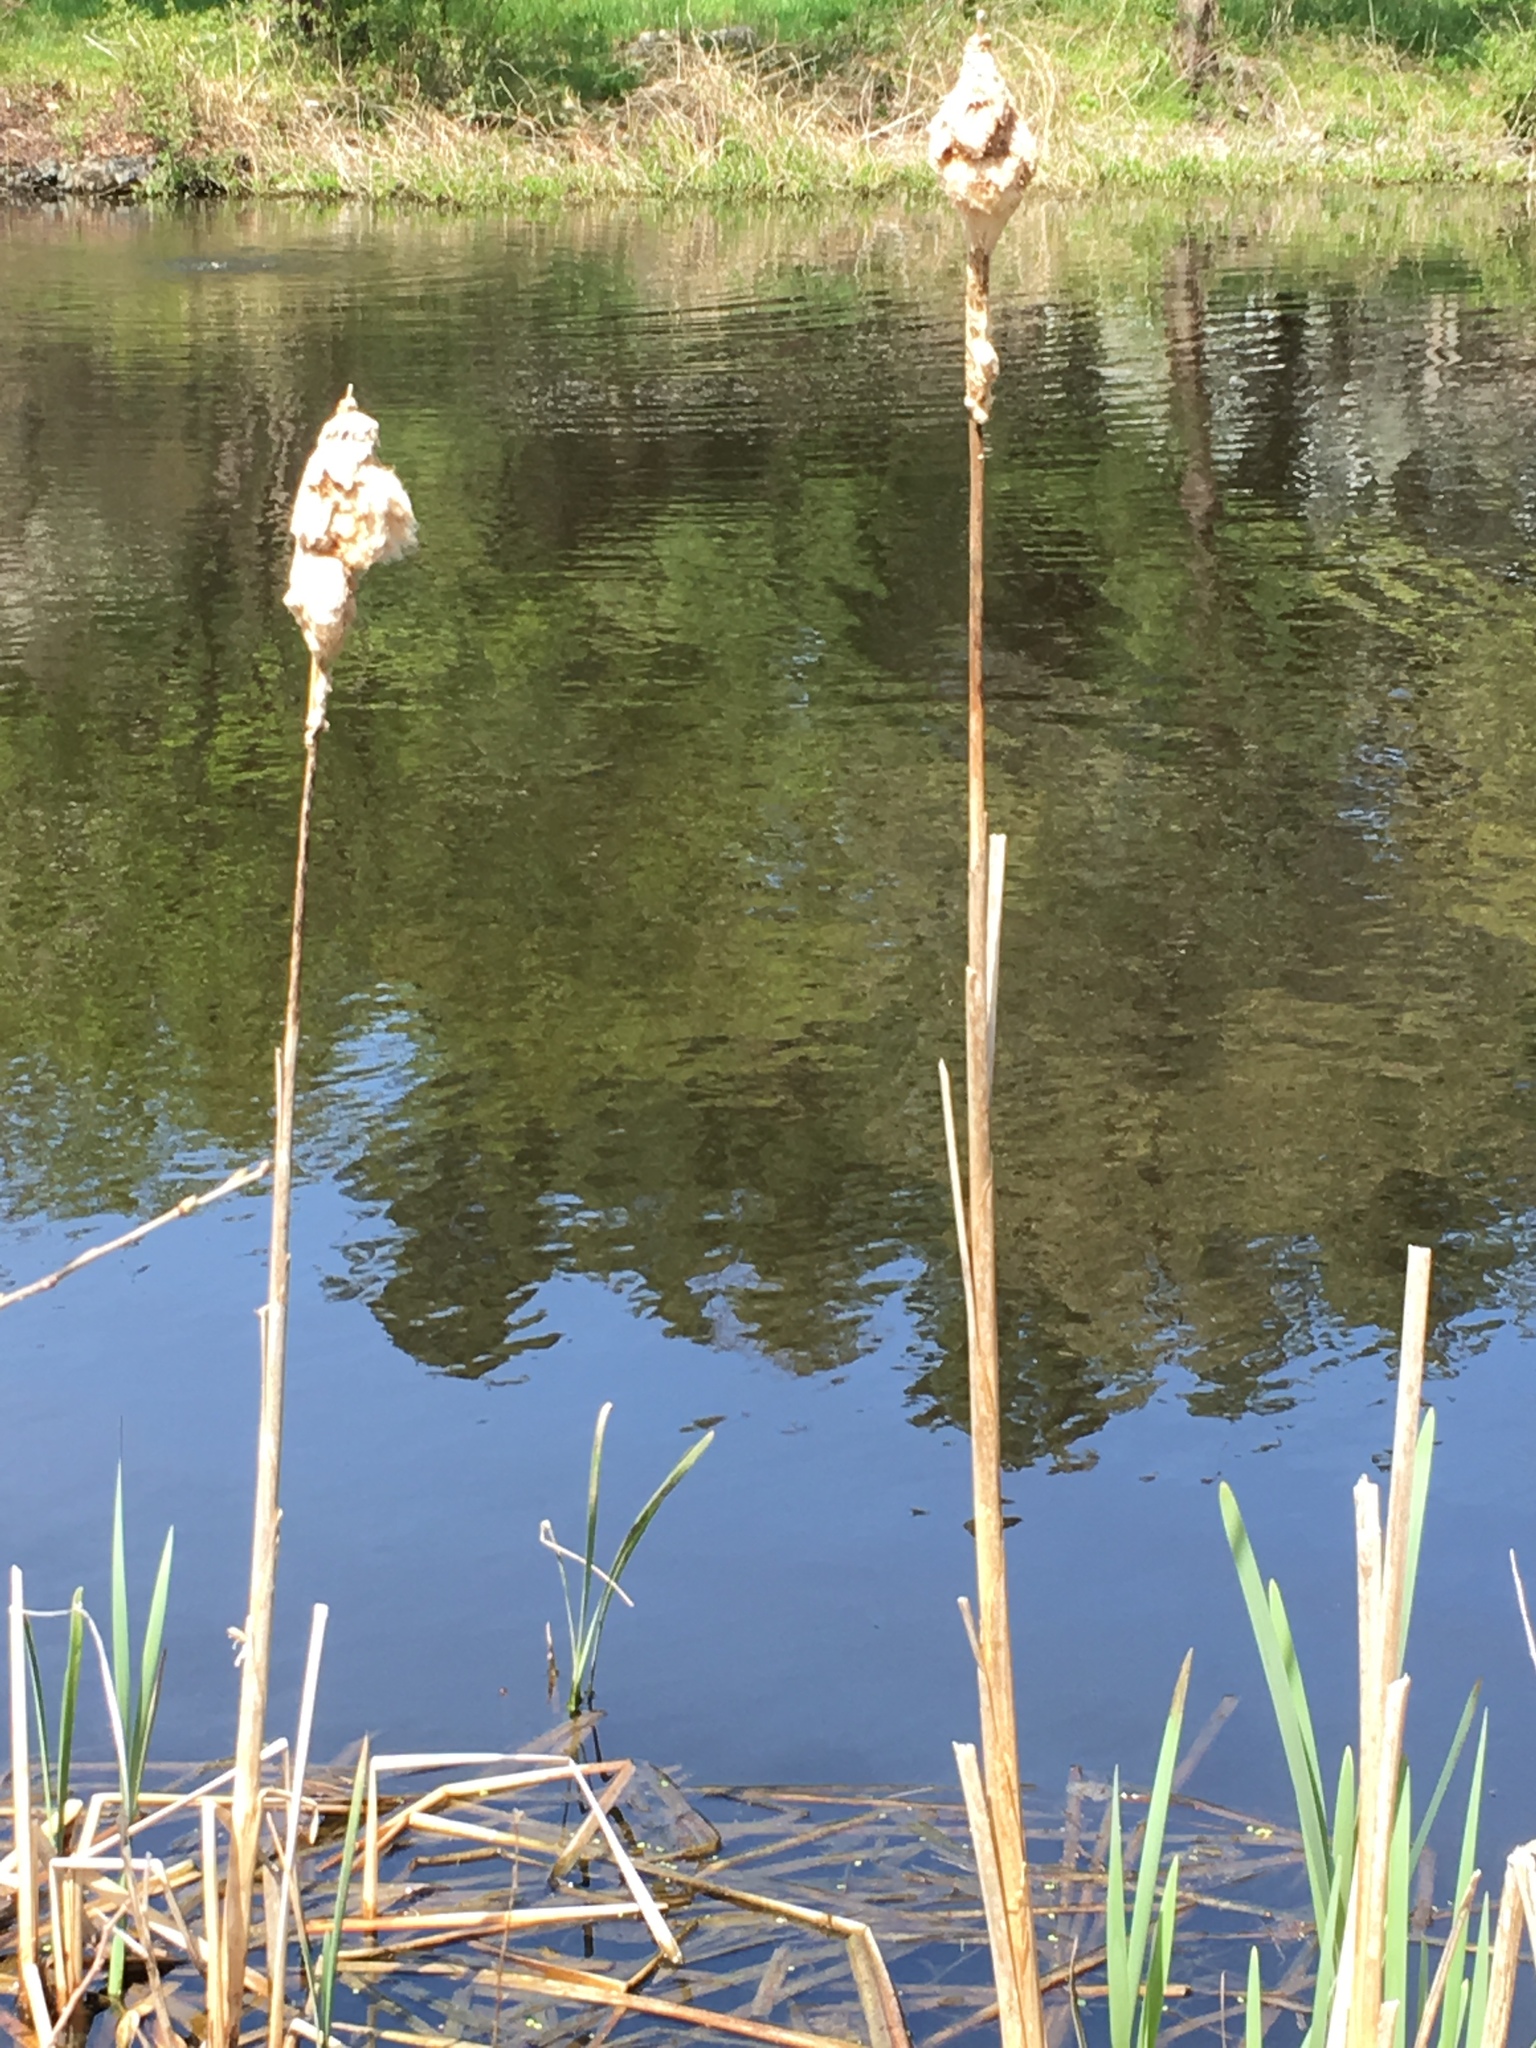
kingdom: Plantae
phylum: Tracheophyta
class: Liliopsida
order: Poales
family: Typhaceae
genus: Typha
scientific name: Typha latifolia
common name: Broadleaf cattail
